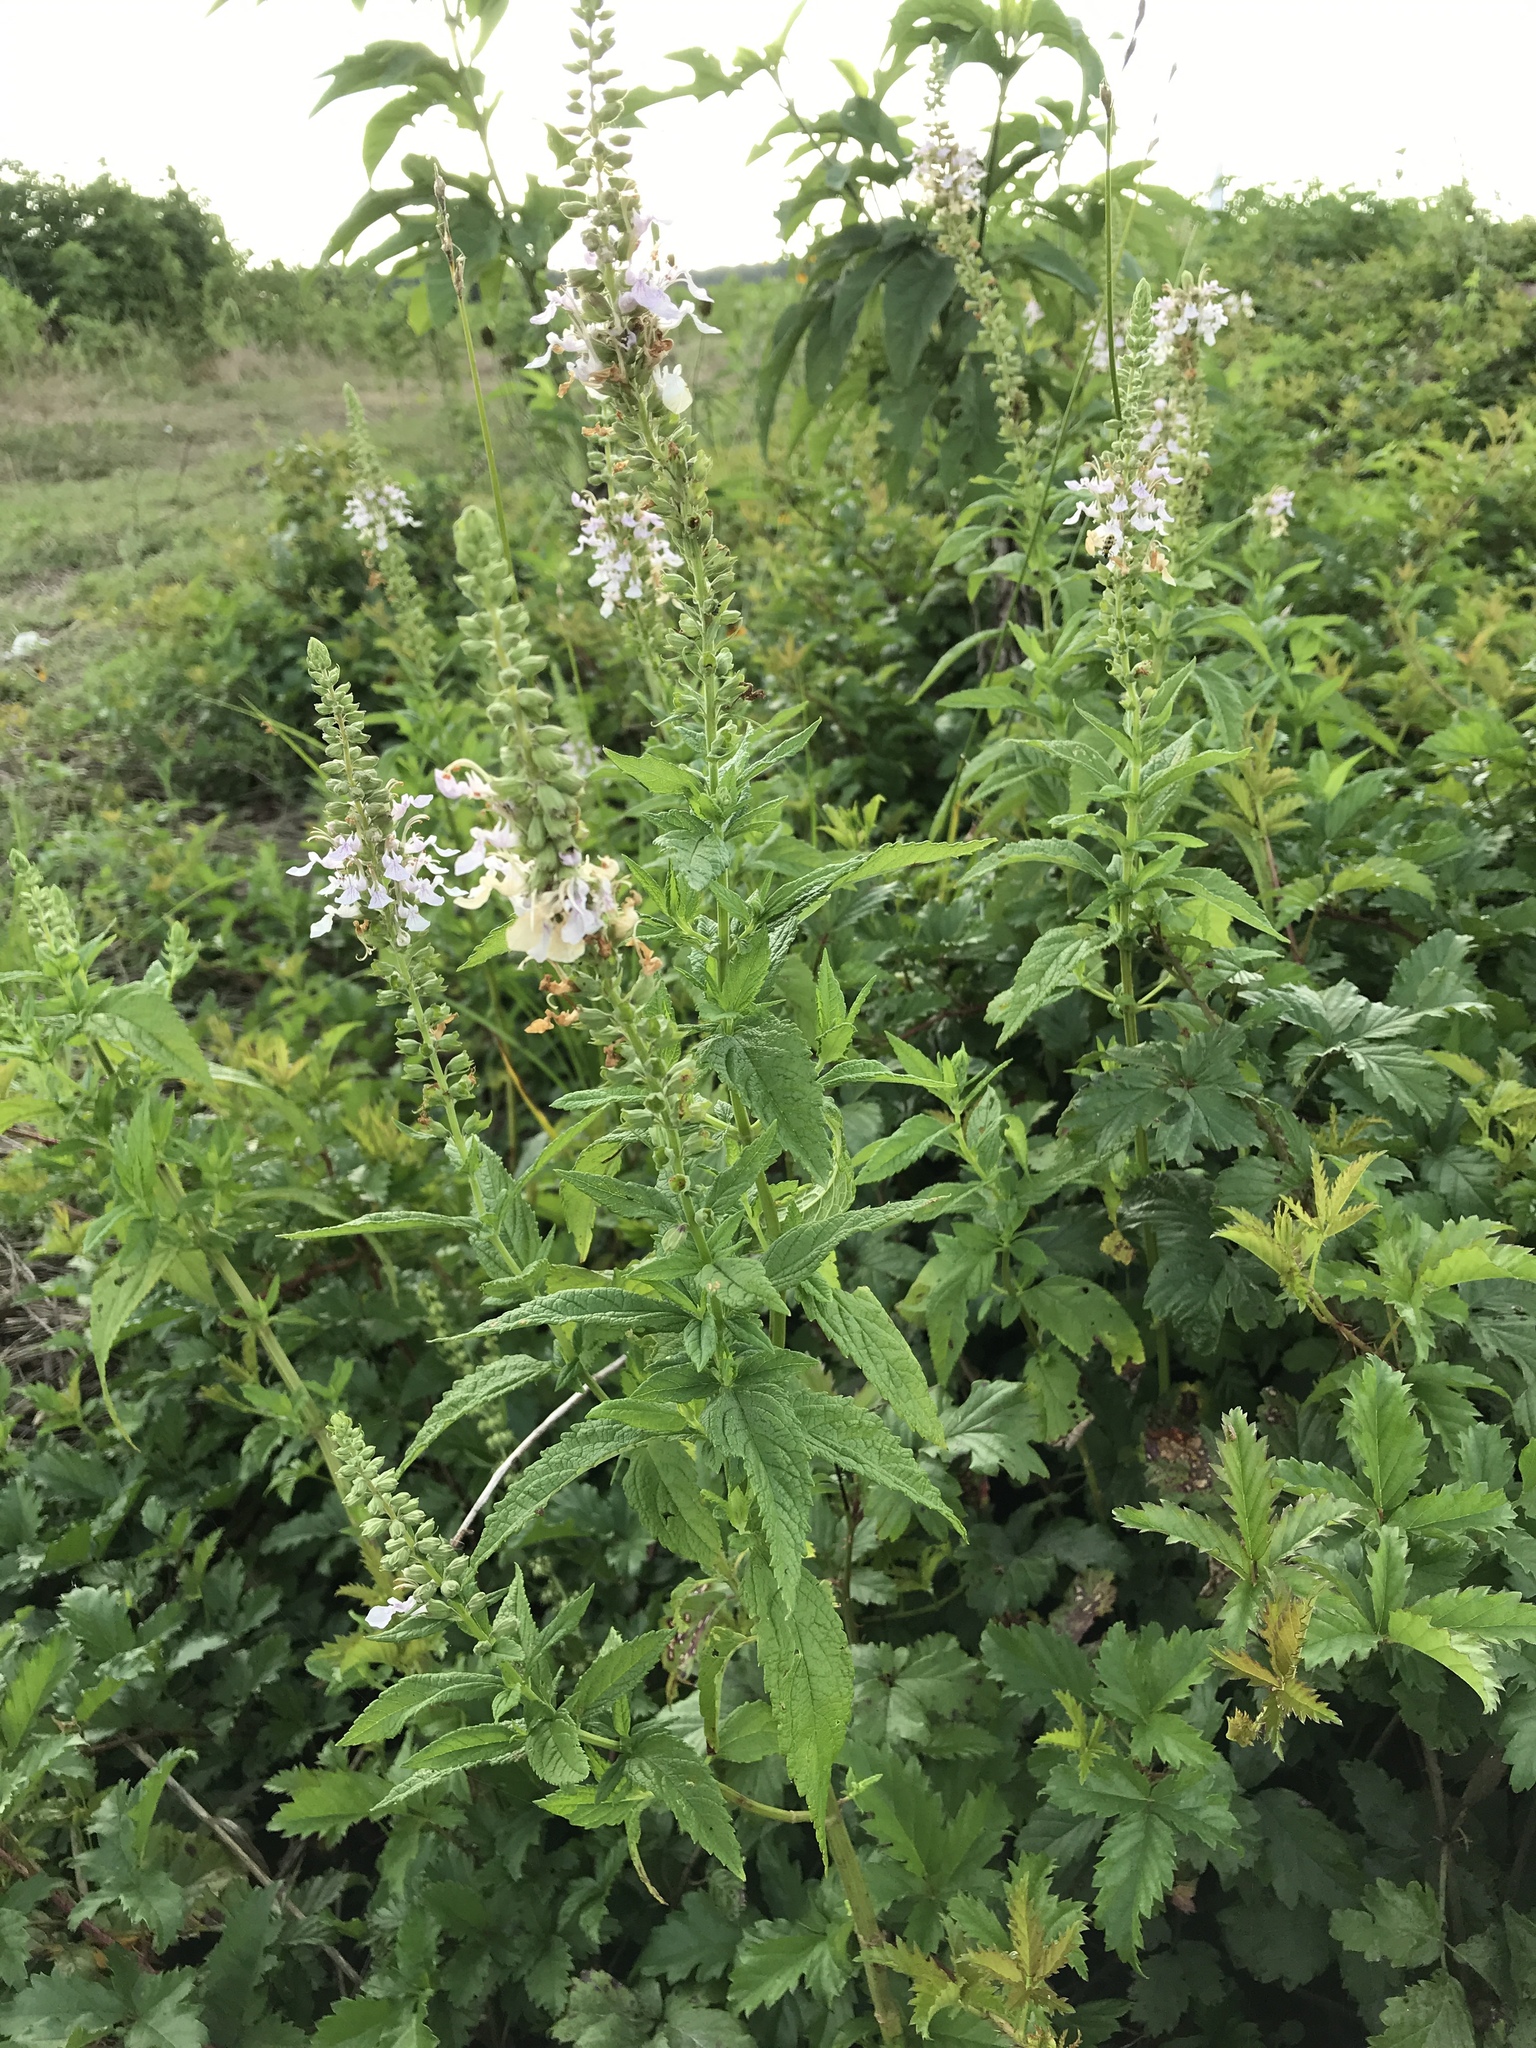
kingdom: Plantae
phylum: Tracheophyta
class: Magnoliopsida
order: Lamiales
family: Lamiaceae
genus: Teucrium
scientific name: Teucrium canadense
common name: American germander
